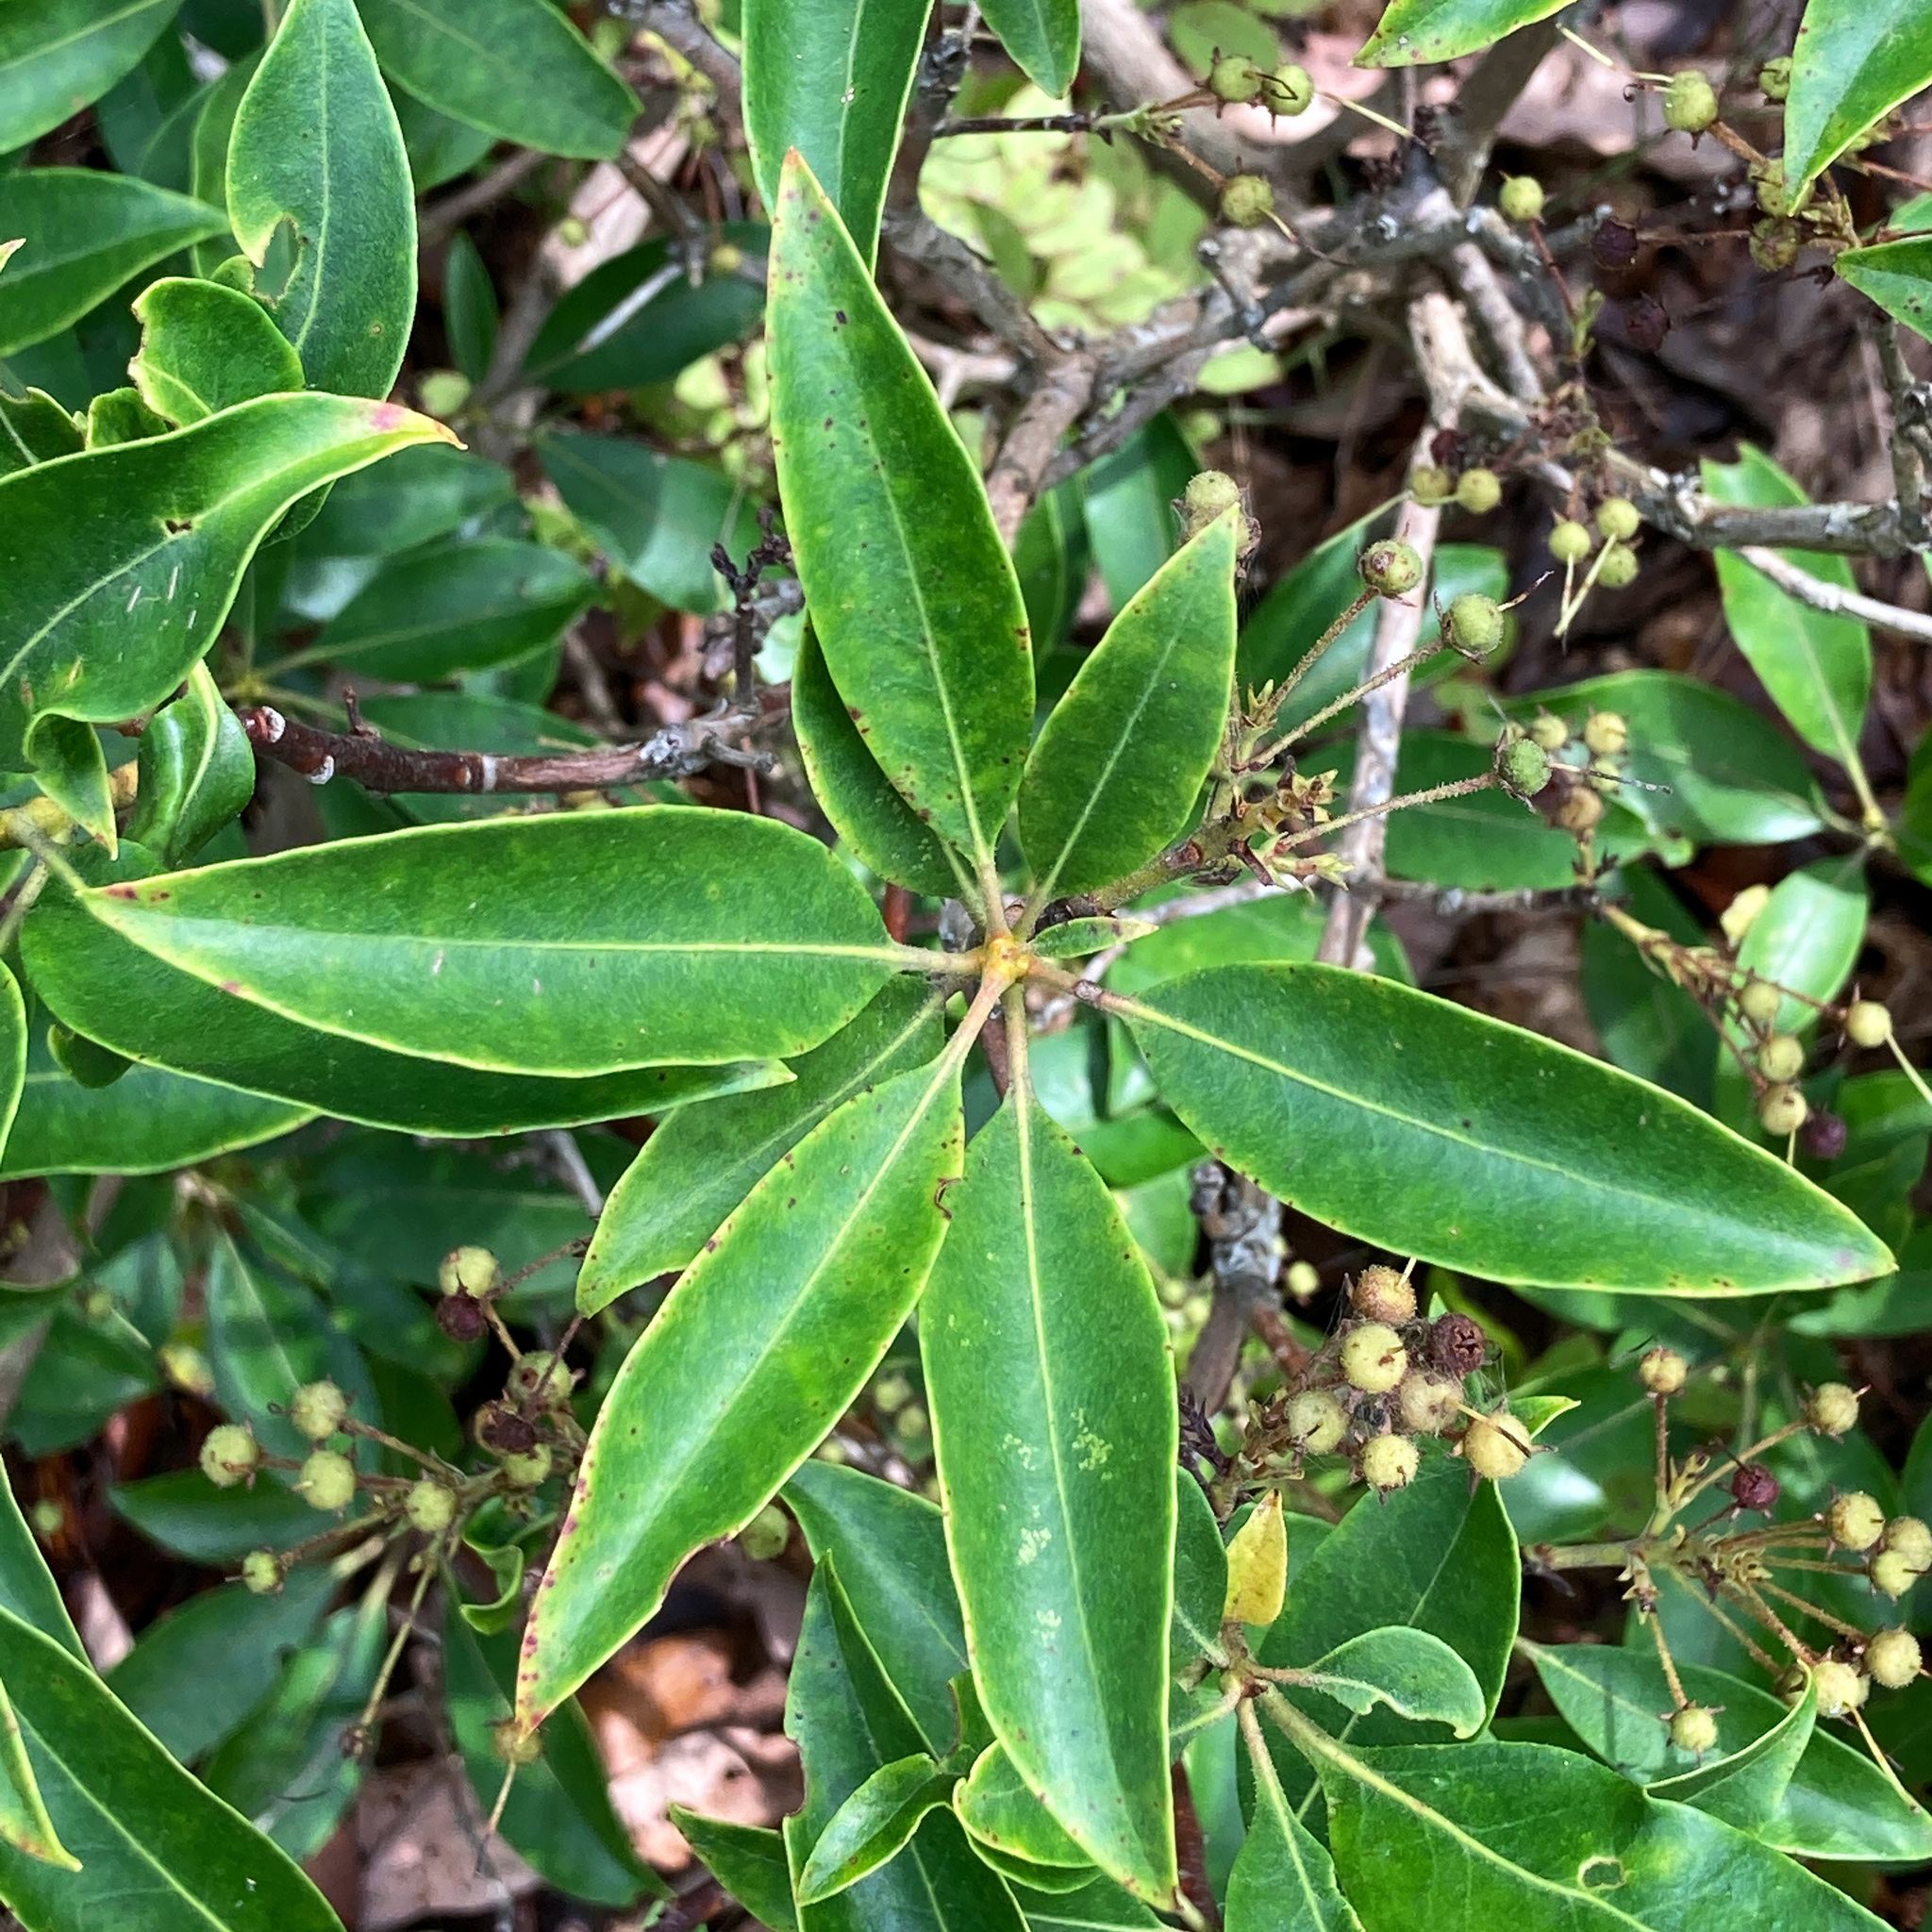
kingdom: Plantae
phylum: Tracheophyta
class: Magnoliopsida
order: Ericales
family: Ericaceae
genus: Kalmia
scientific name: Kalmia latifolia
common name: Mountain-laurel
